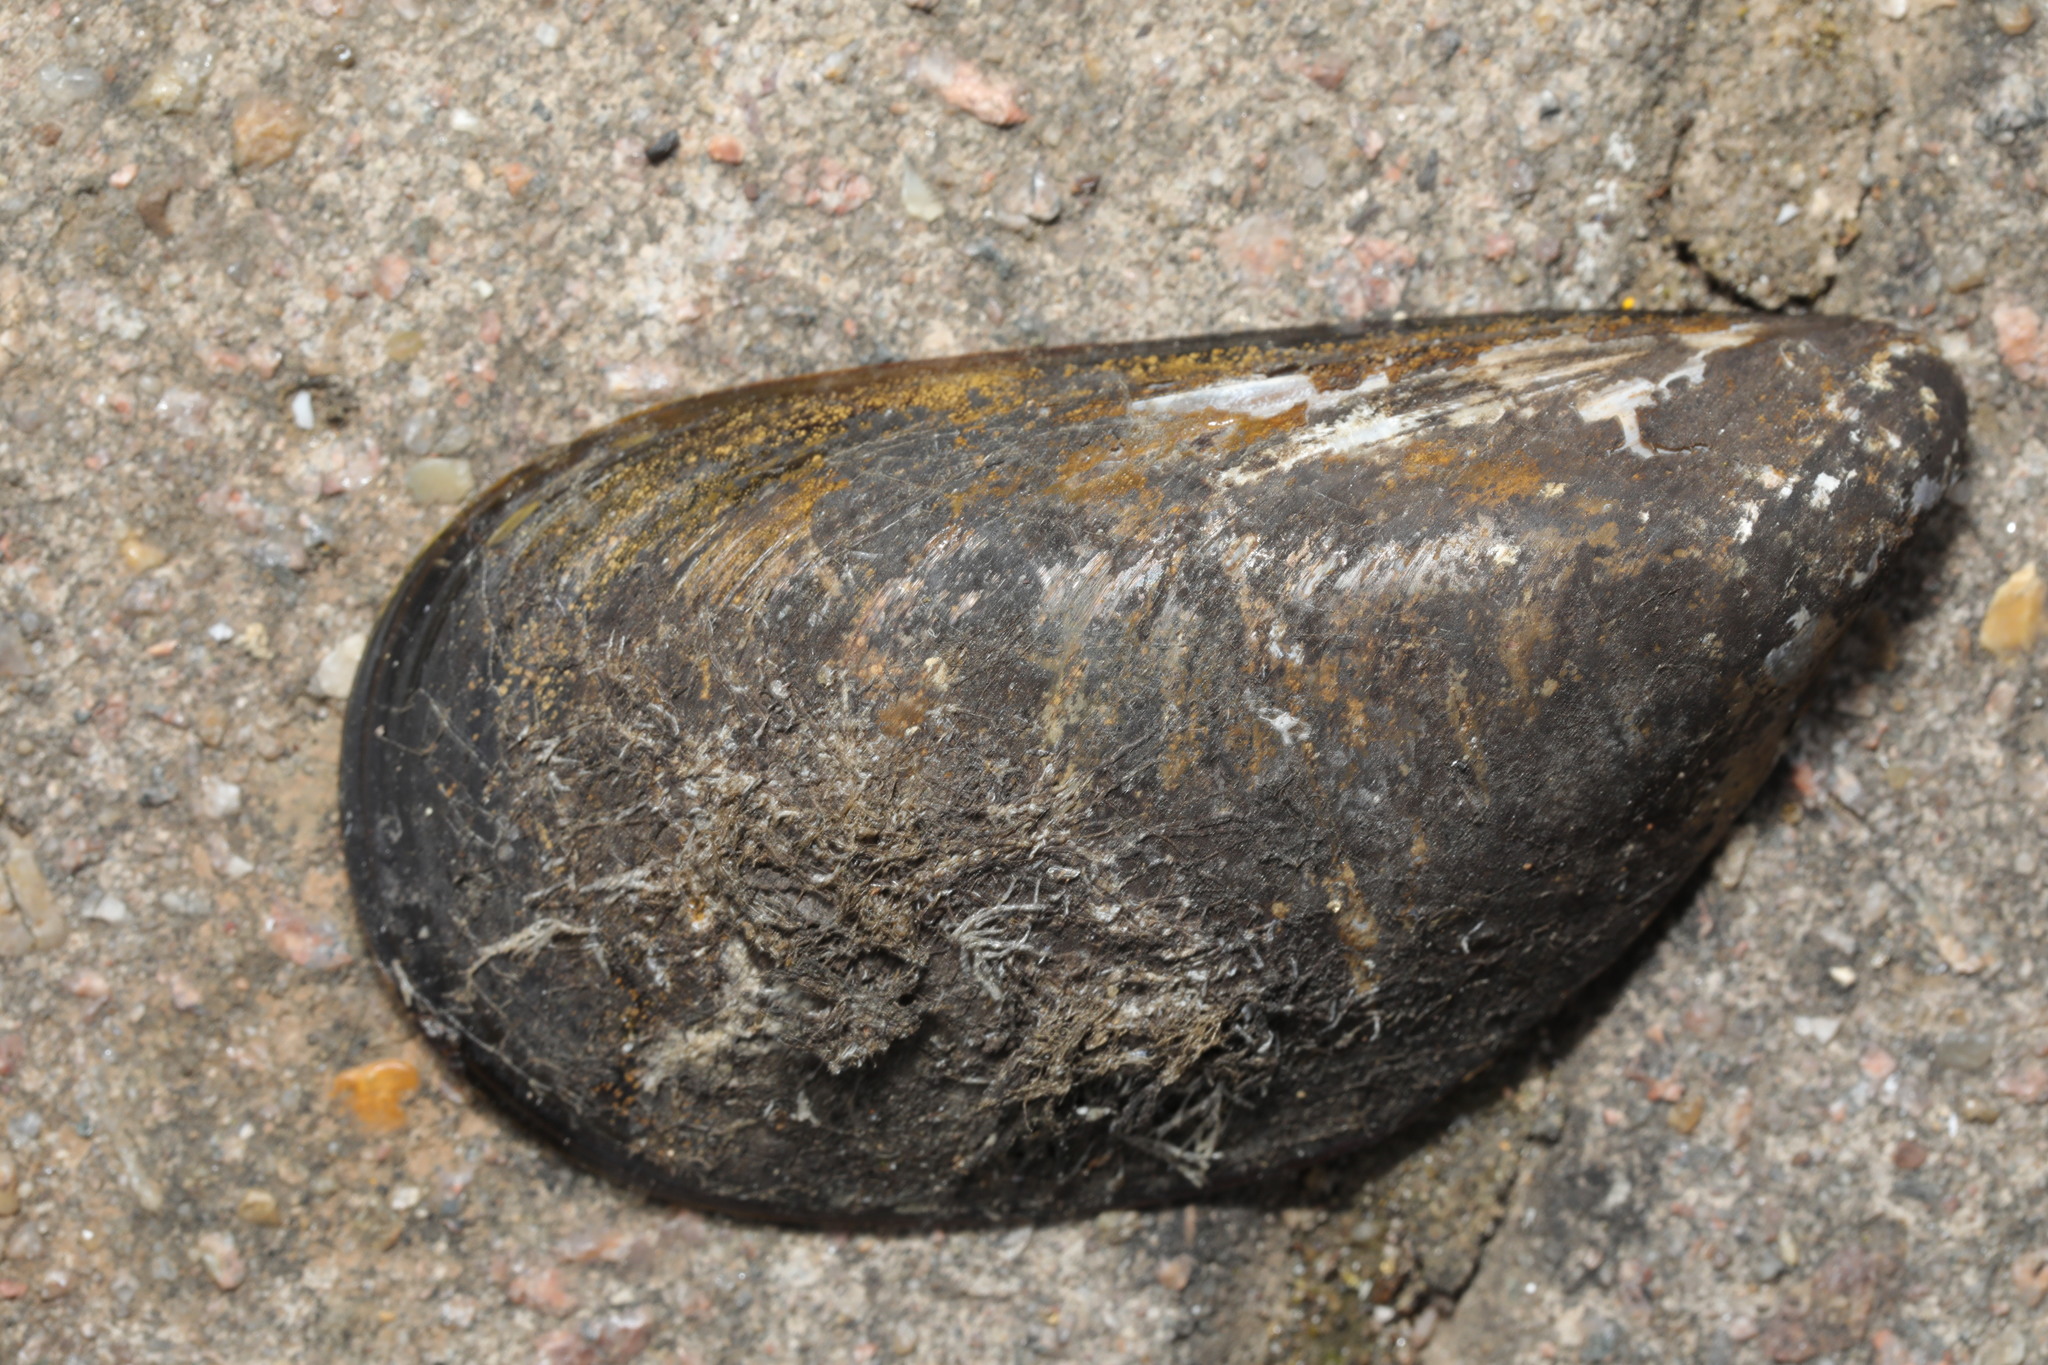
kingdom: Animalia
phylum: Mollusca
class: Bivalvia
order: Mytilida
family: Mytilidae
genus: Mytilus
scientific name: Mytilus edulis
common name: Blue mussel
